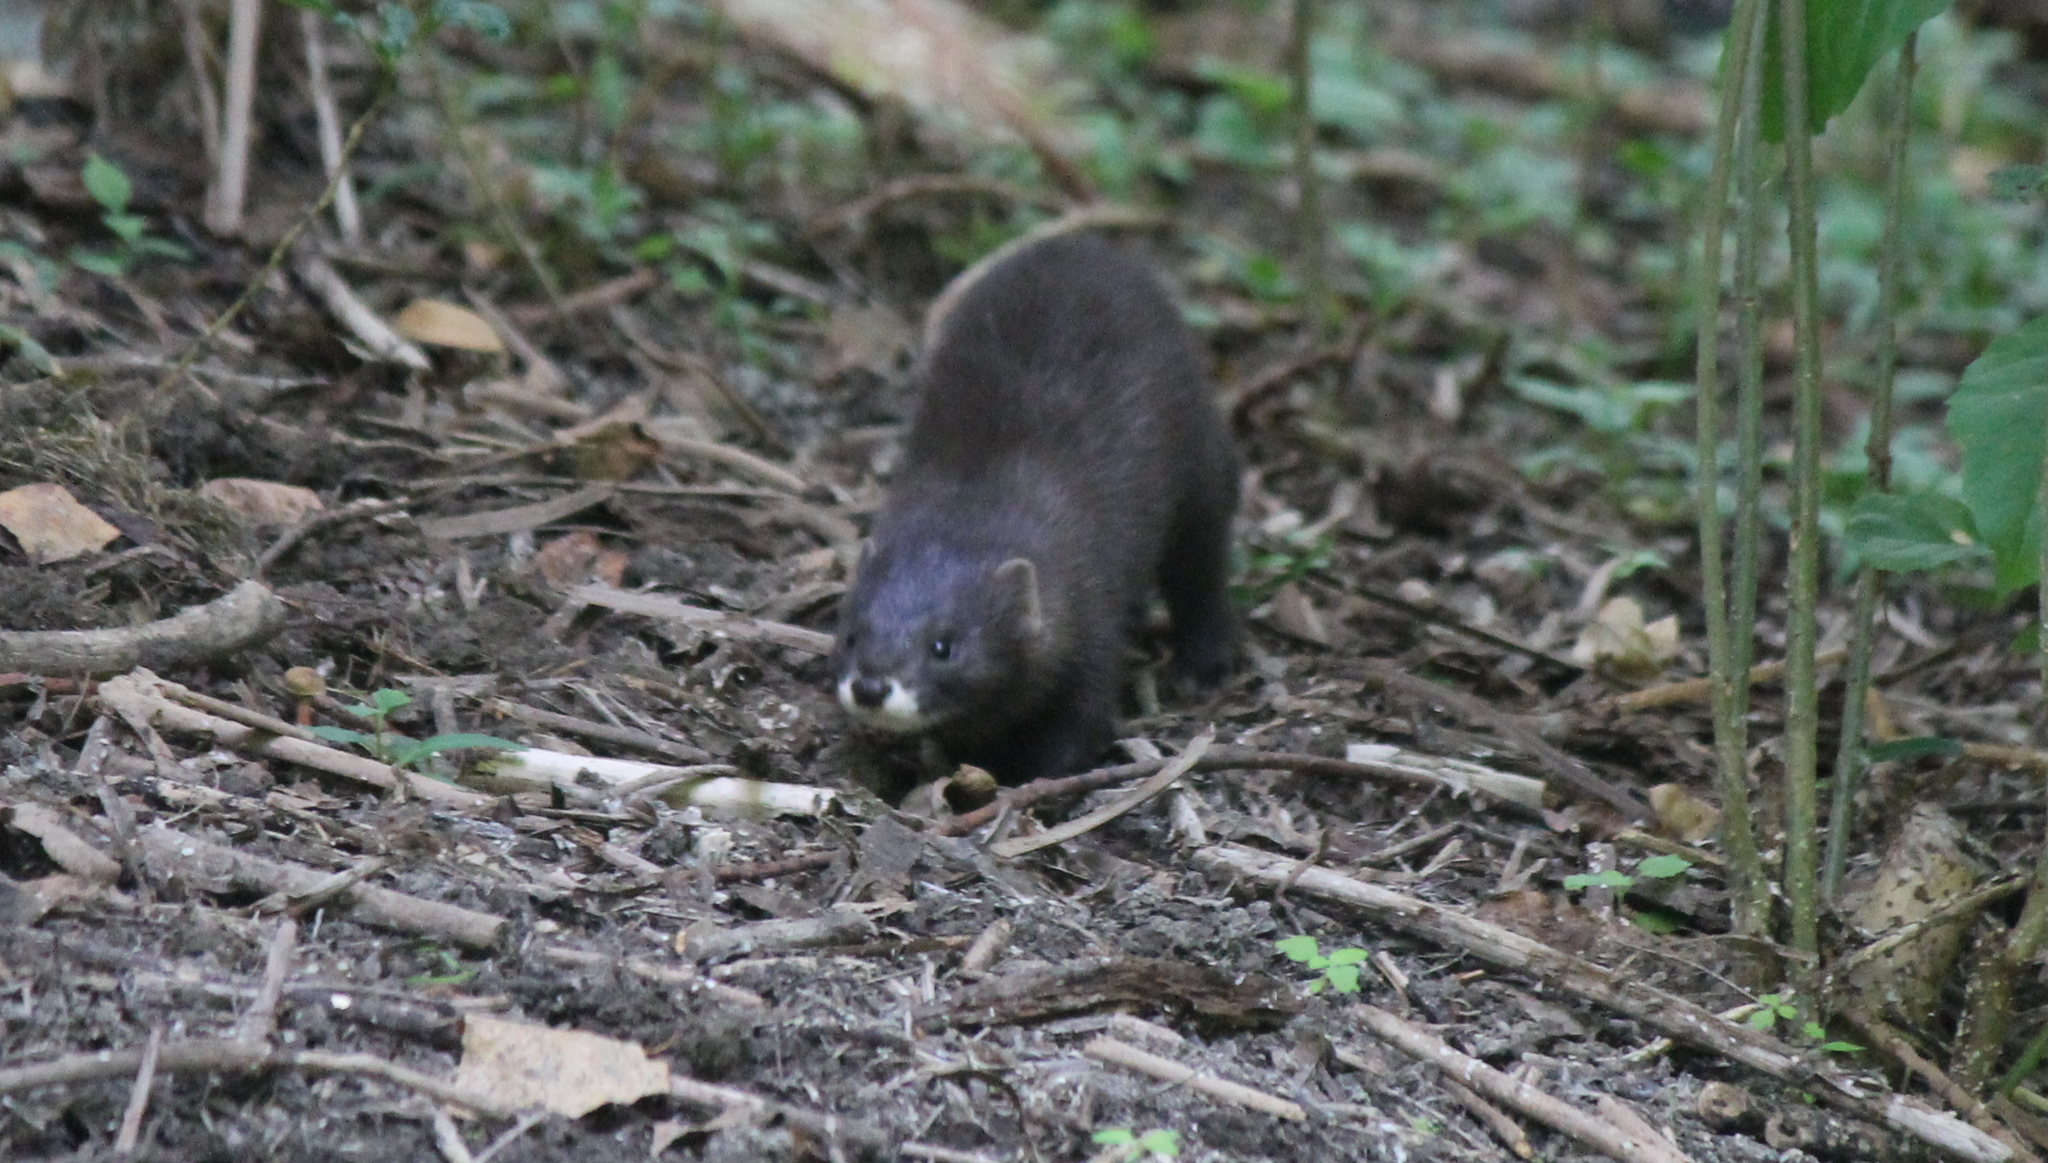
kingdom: Animalia
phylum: Chordata
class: Mammalia
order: Carnivora
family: Mustelidae
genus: Mustela
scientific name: Mustela lutreola
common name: European mink
